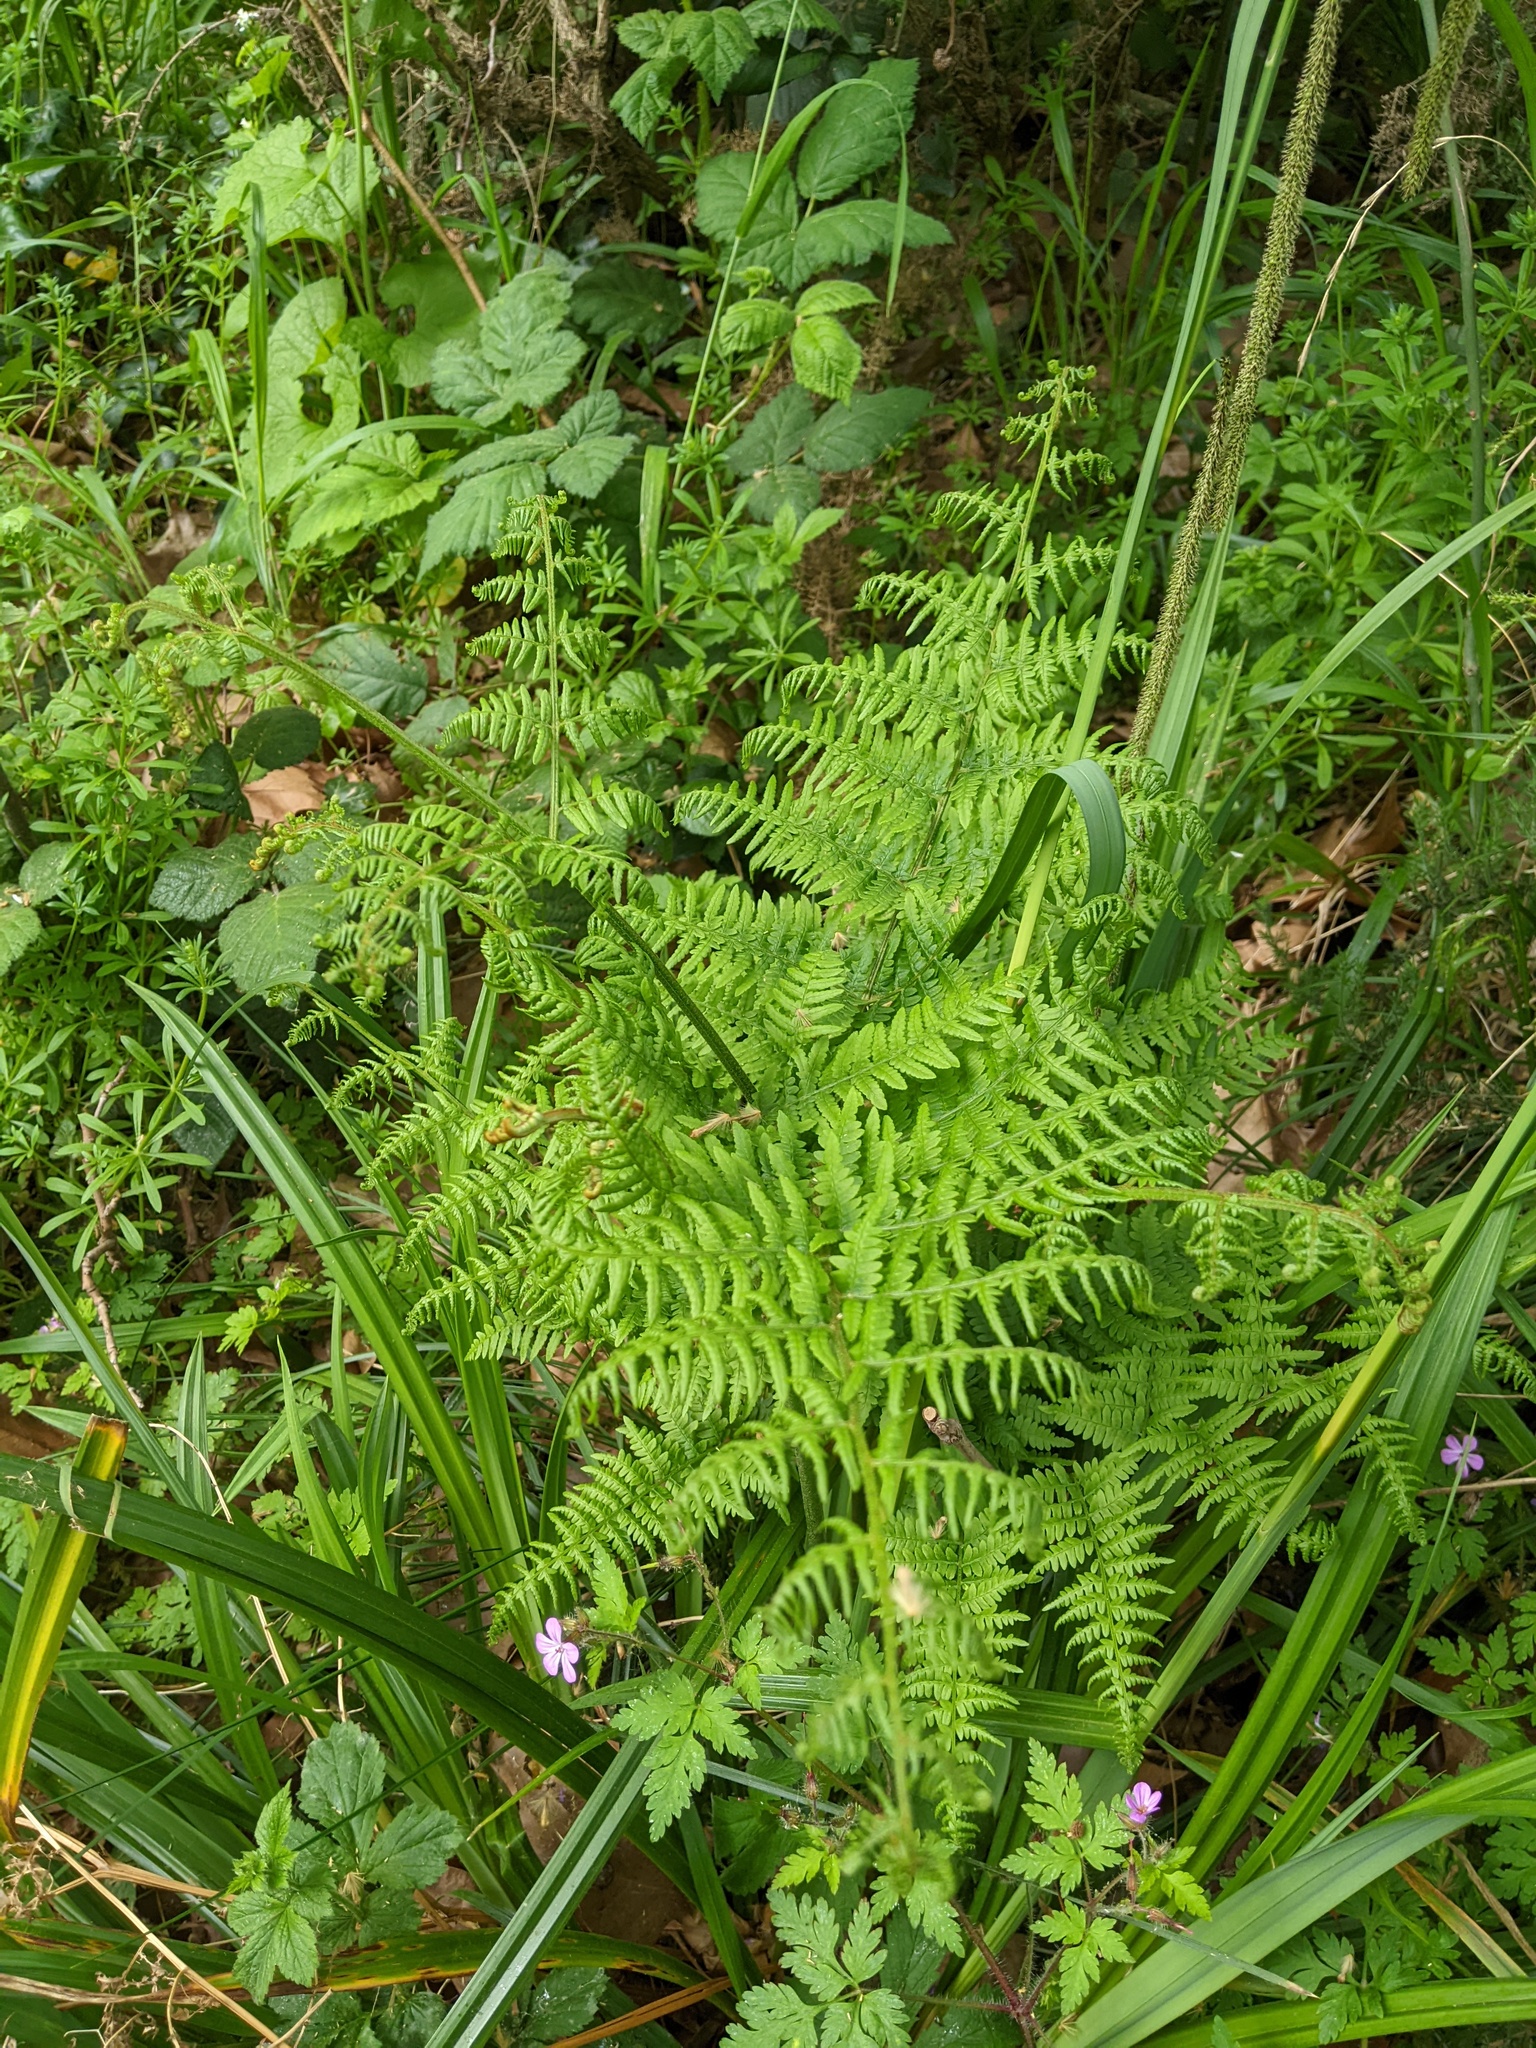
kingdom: Plantae
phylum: Tracheophyta
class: Polypodiopsida
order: Polypodiales
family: Dennstaedtiaceae
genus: Pteridium
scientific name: Pteridium aquilinum
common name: Bracken
